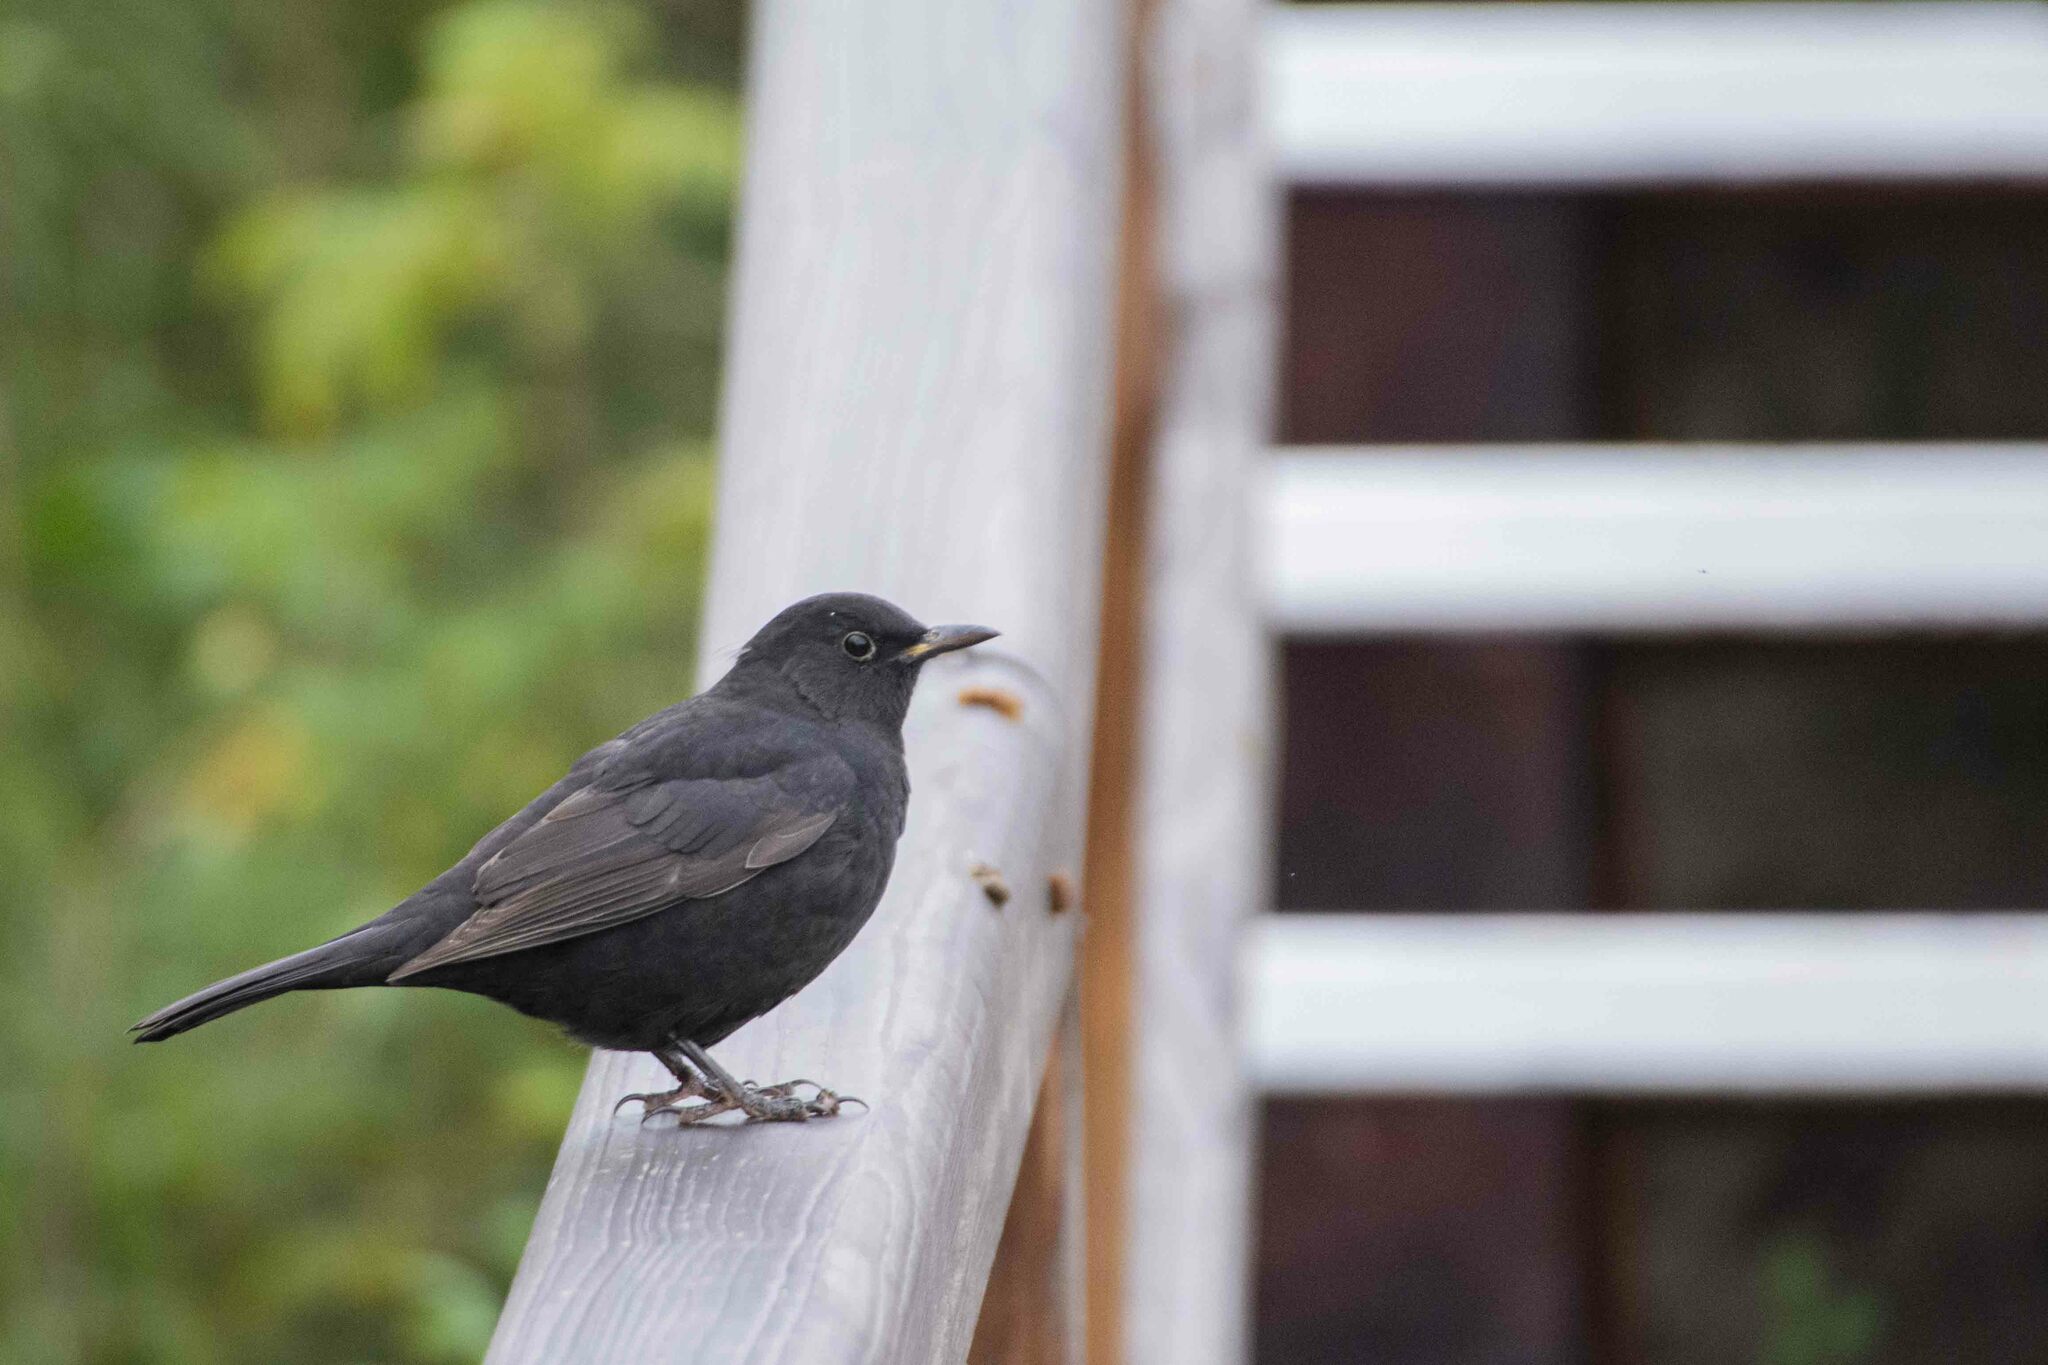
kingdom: Animalia
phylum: Chordata
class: Aves
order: Passeriformes
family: Turdidae
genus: Turdus
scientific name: Turdus merula
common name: Common blackbird
